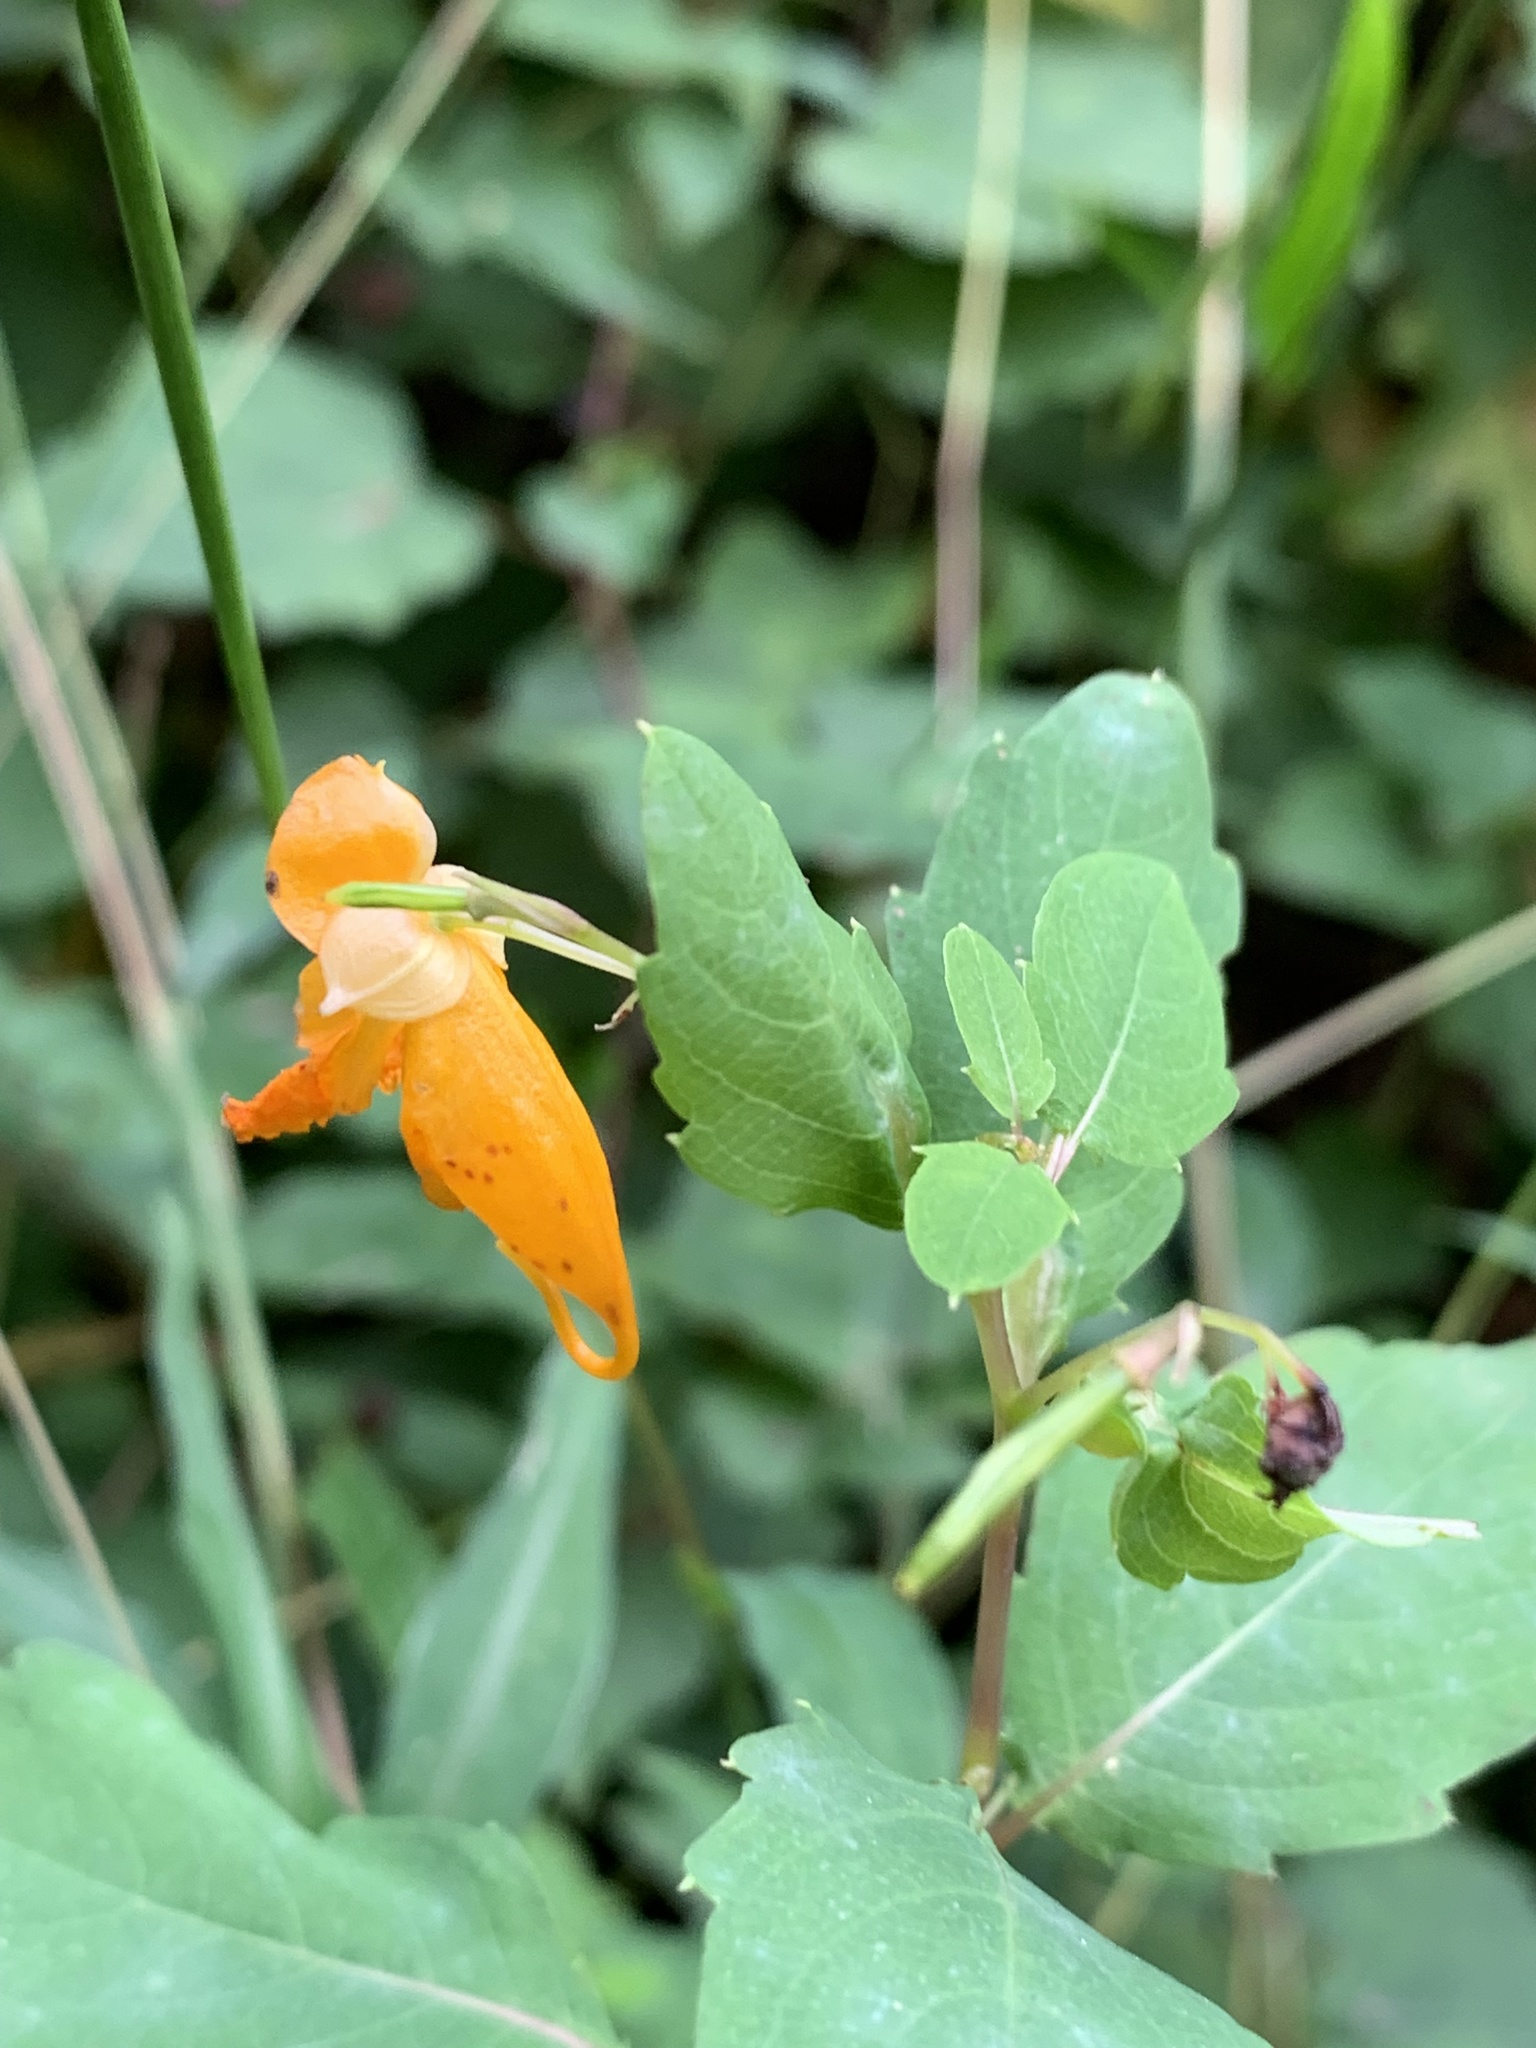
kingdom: Plantae
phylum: Tracheophyta
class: Magnoliopsida
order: Ericales
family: Balsaminaceae
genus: Impatiens
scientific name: Impatiens capensis
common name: Orange balsam
